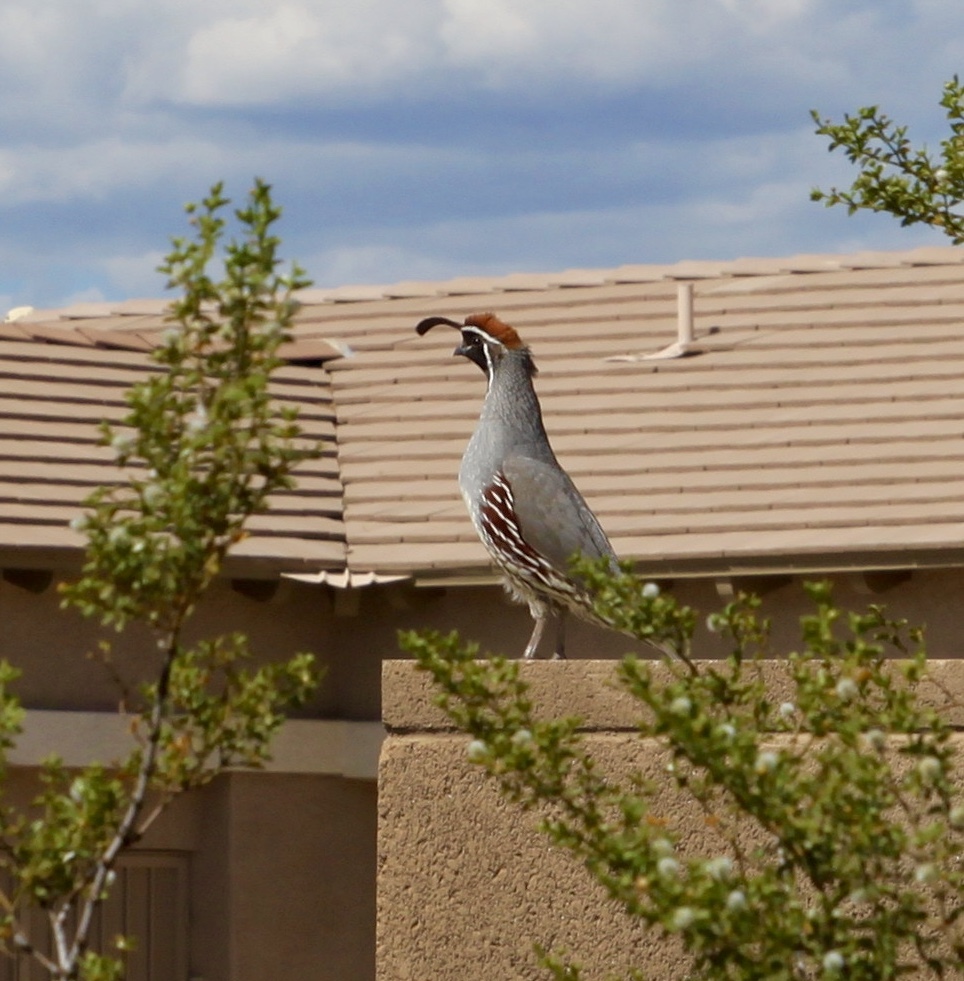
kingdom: Animalia
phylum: Chordata
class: Aves
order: Galliformes
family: Odontophoridae
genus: Callipepla
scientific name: Callipepla gambelii
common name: Gambel's quail
